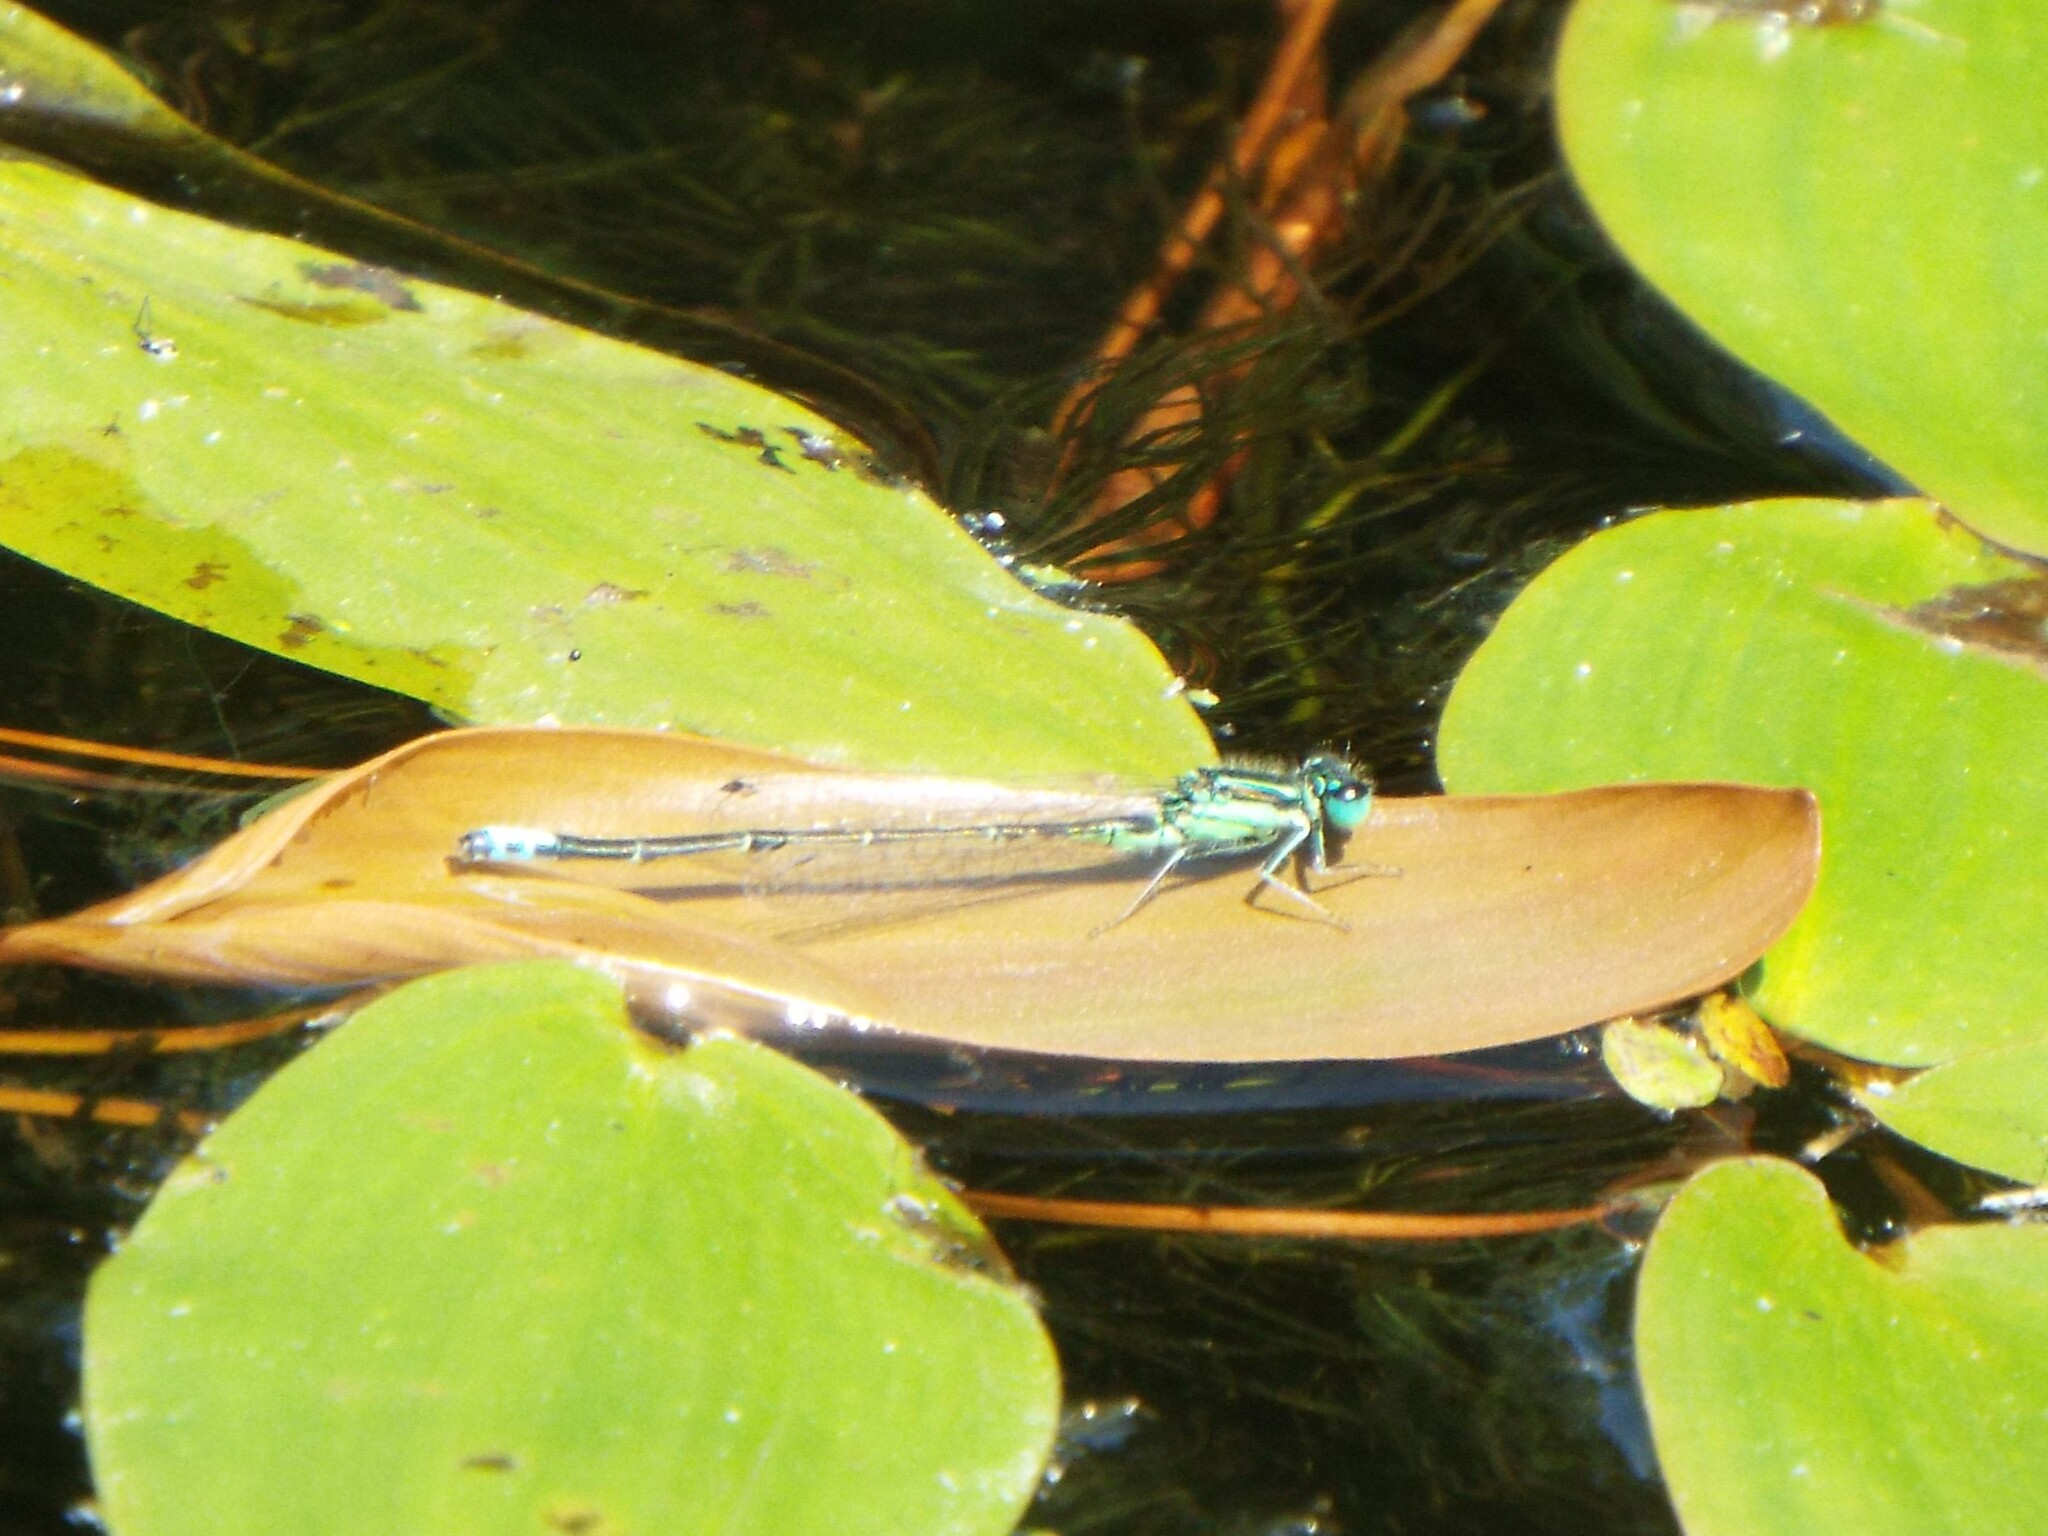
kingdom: Animalia
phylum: Arthropoda
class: Insecta
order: Odonata
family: Coenagrionidae
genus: Ischnura
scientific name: Ischnura verticalis
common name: Eastern forktail
